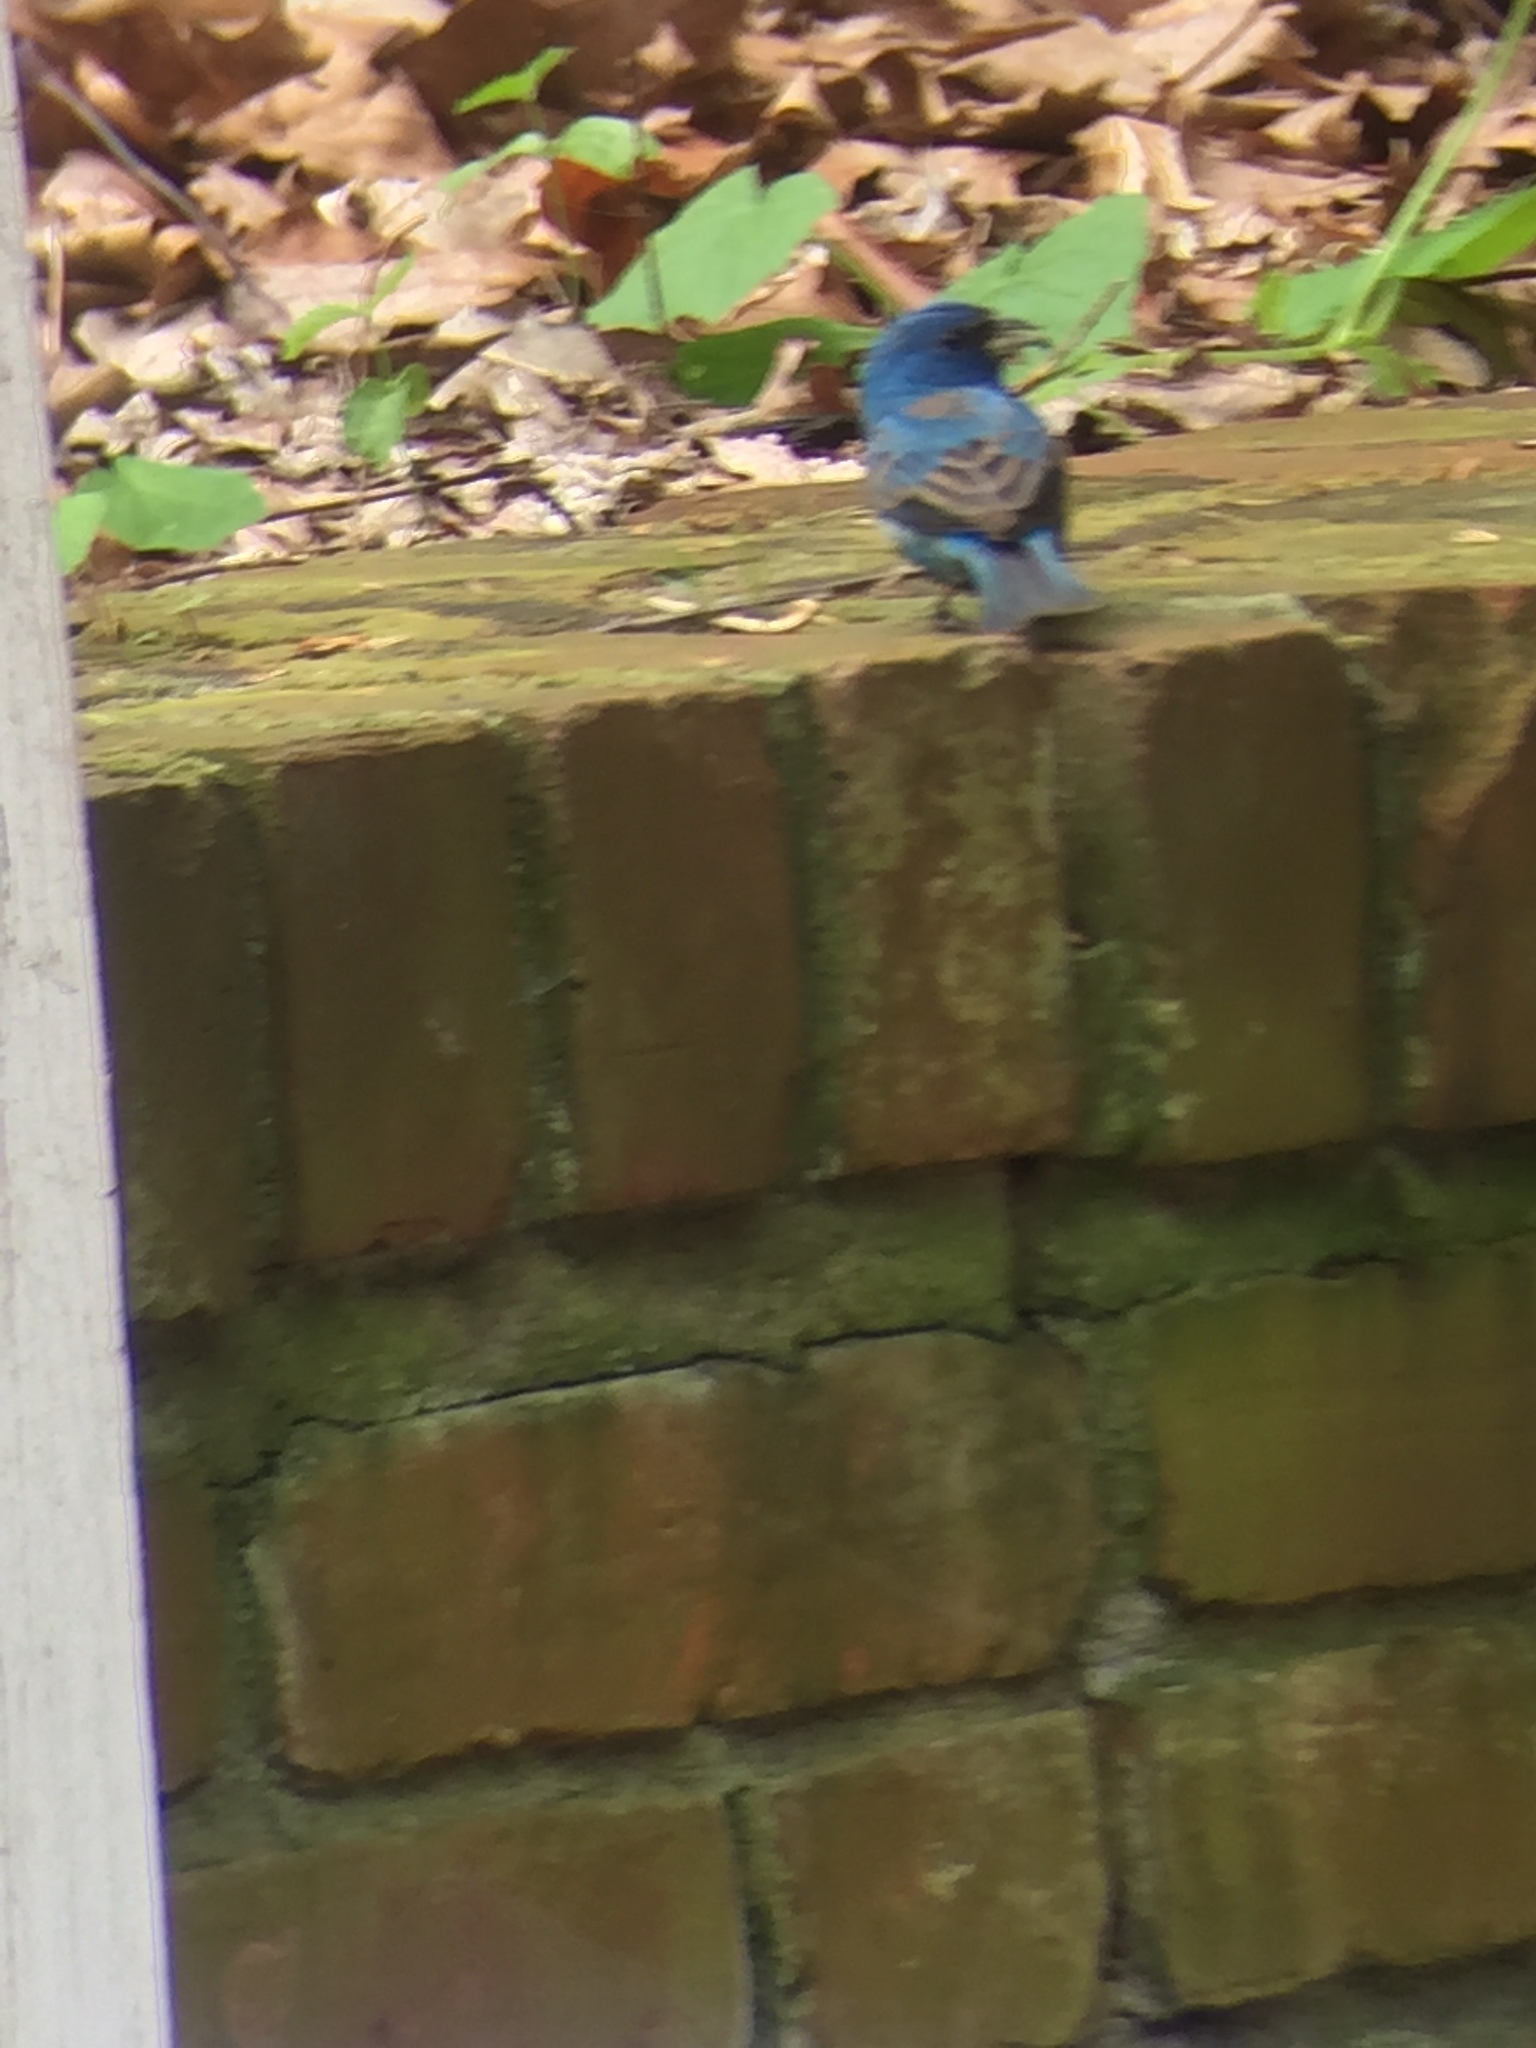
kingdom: Animalia
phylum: Chordata
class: Aves
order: Passeriformes
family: Cardinalidae
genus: Passerina
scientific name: Passerina cyanea
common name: Indigo bunting
